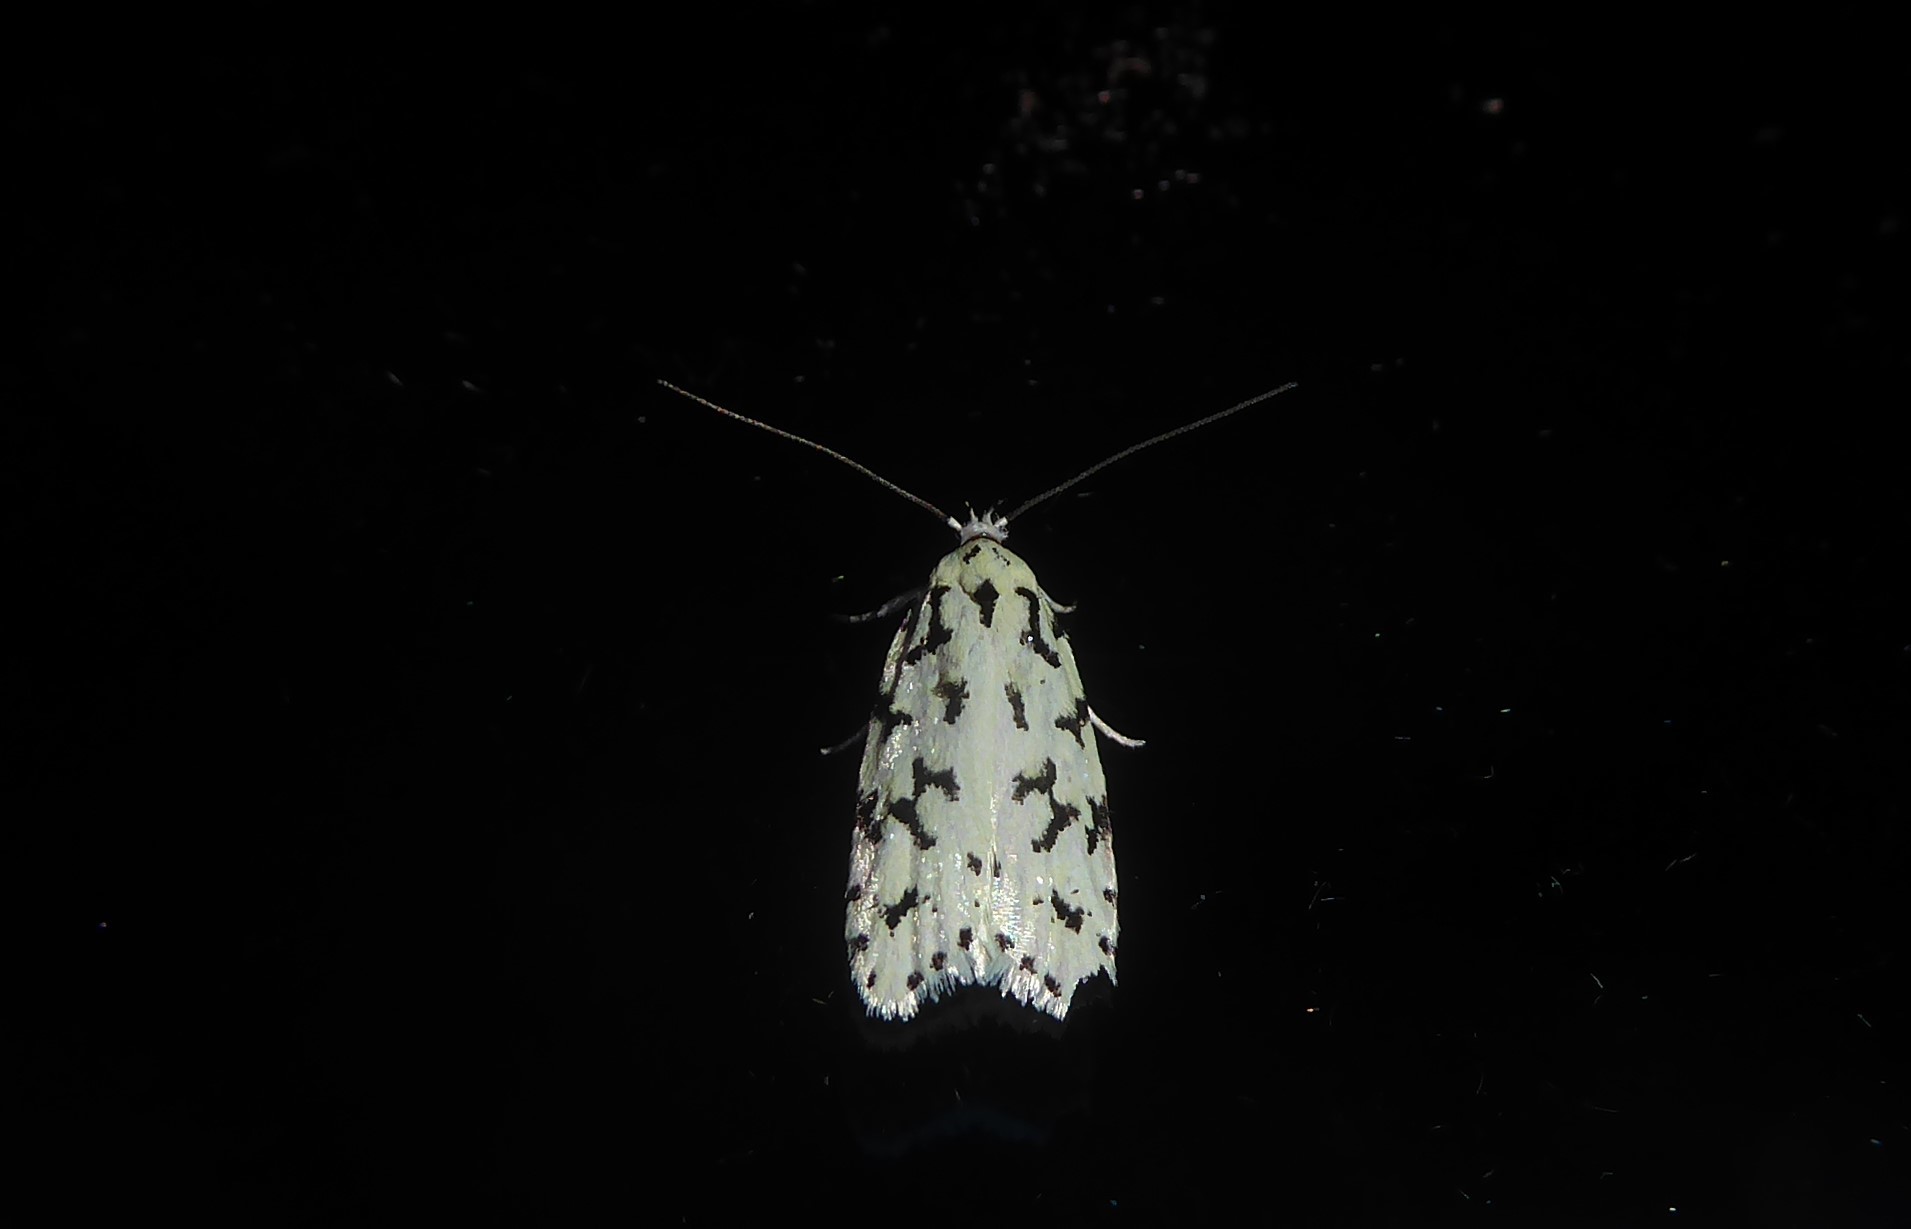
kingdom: Animalia
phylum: Arthropoda
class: Insecta
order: Lepidoptera
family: Oecophoridae
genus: Izatha
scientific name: Izatha huttoni
